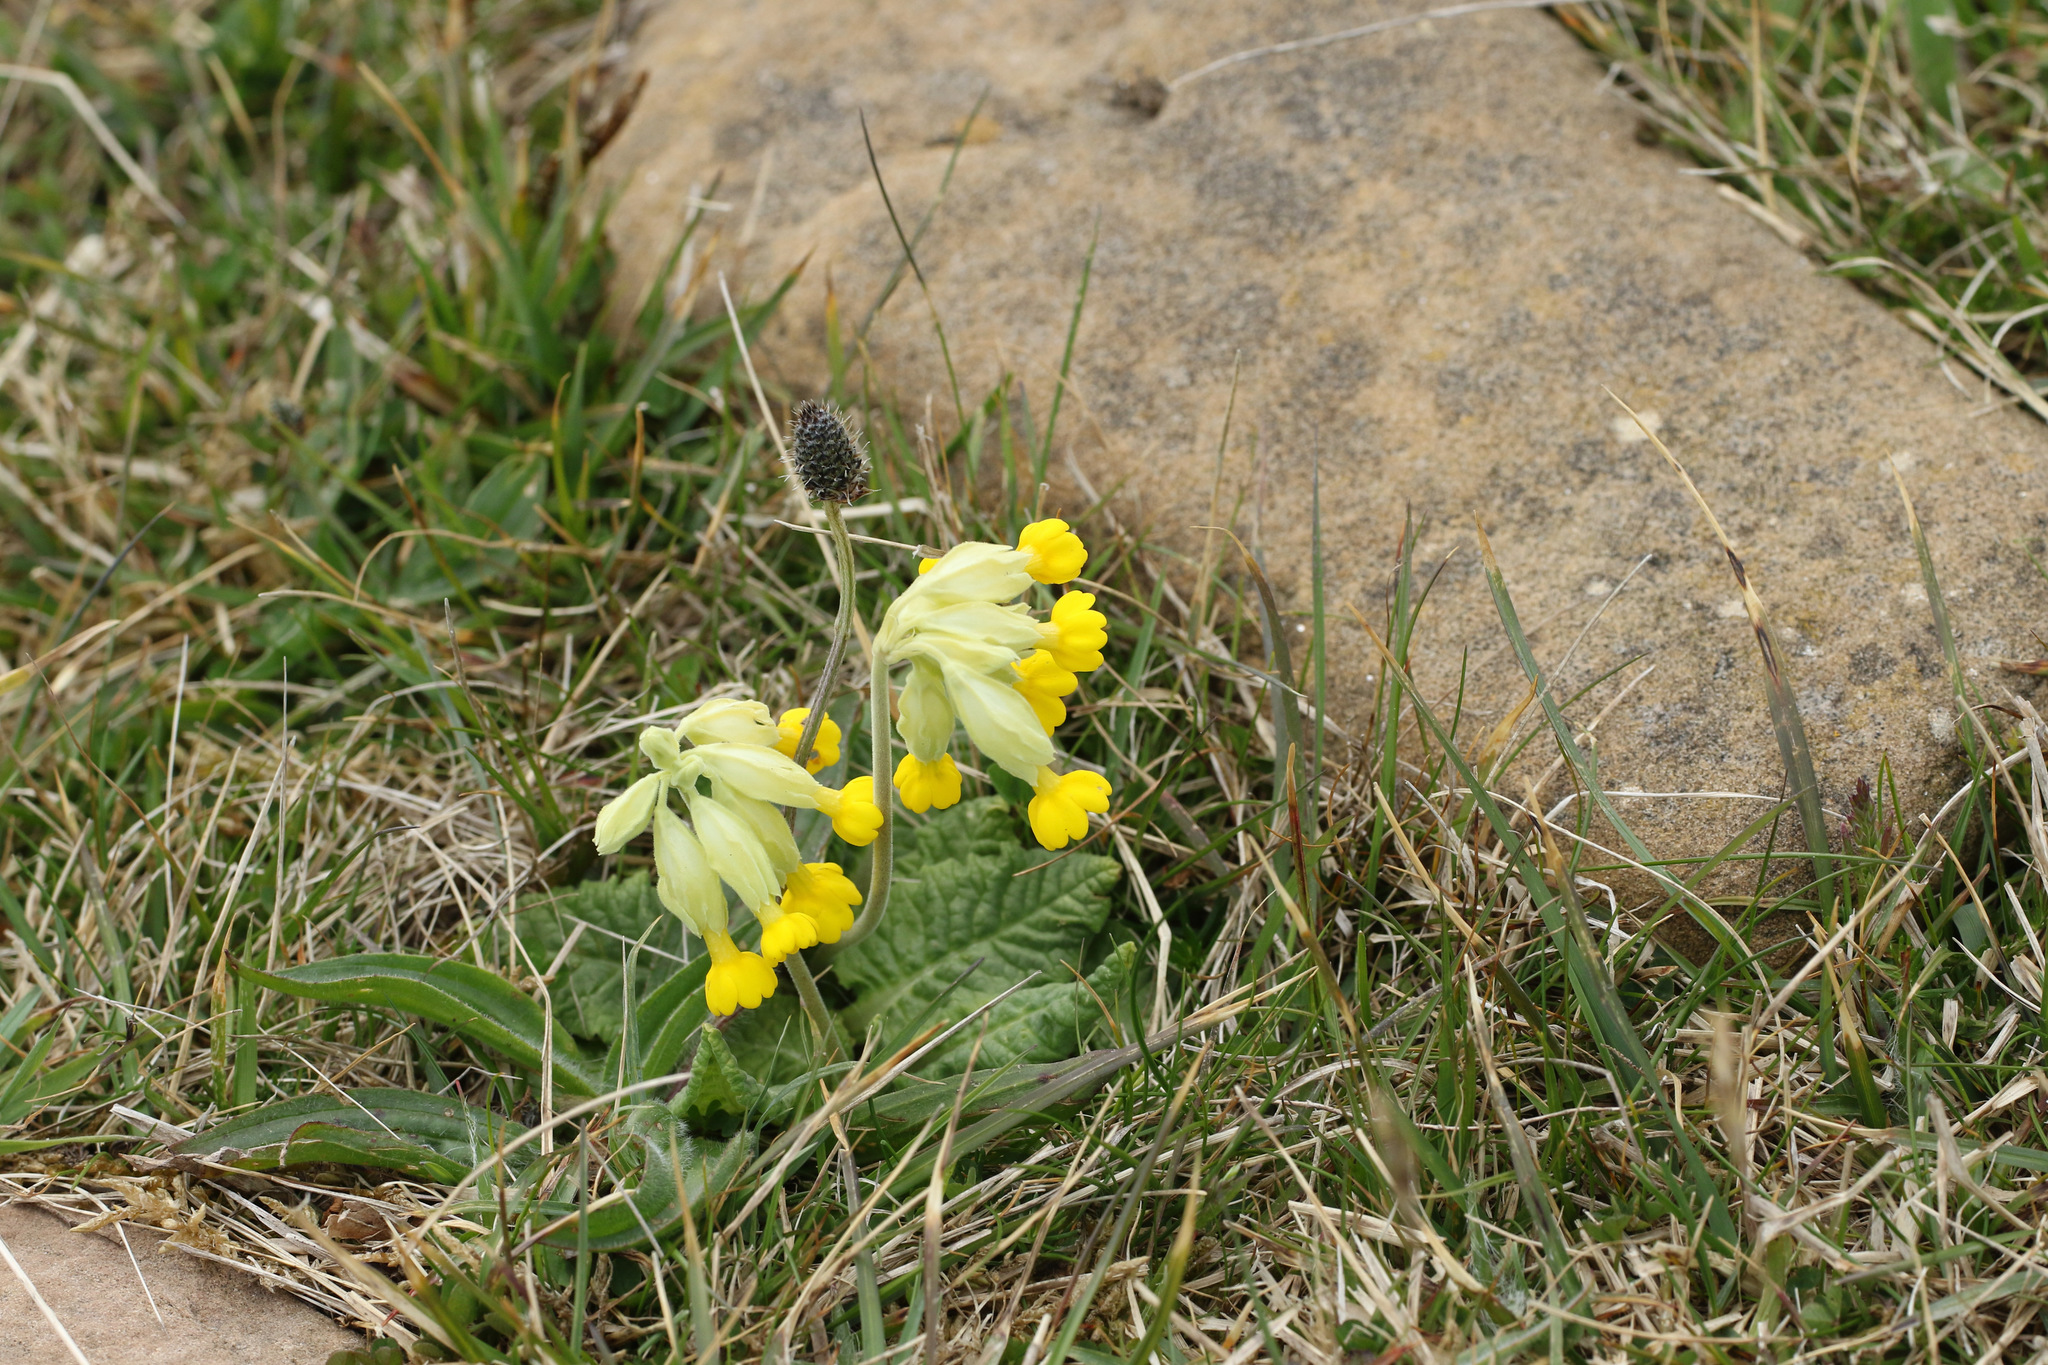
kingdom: Plantae
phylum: Tracheophyta
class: Magnoliopsida
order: Ericales
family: Primulaceae
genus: Primula
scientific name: Primula veris
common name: Cowslip
